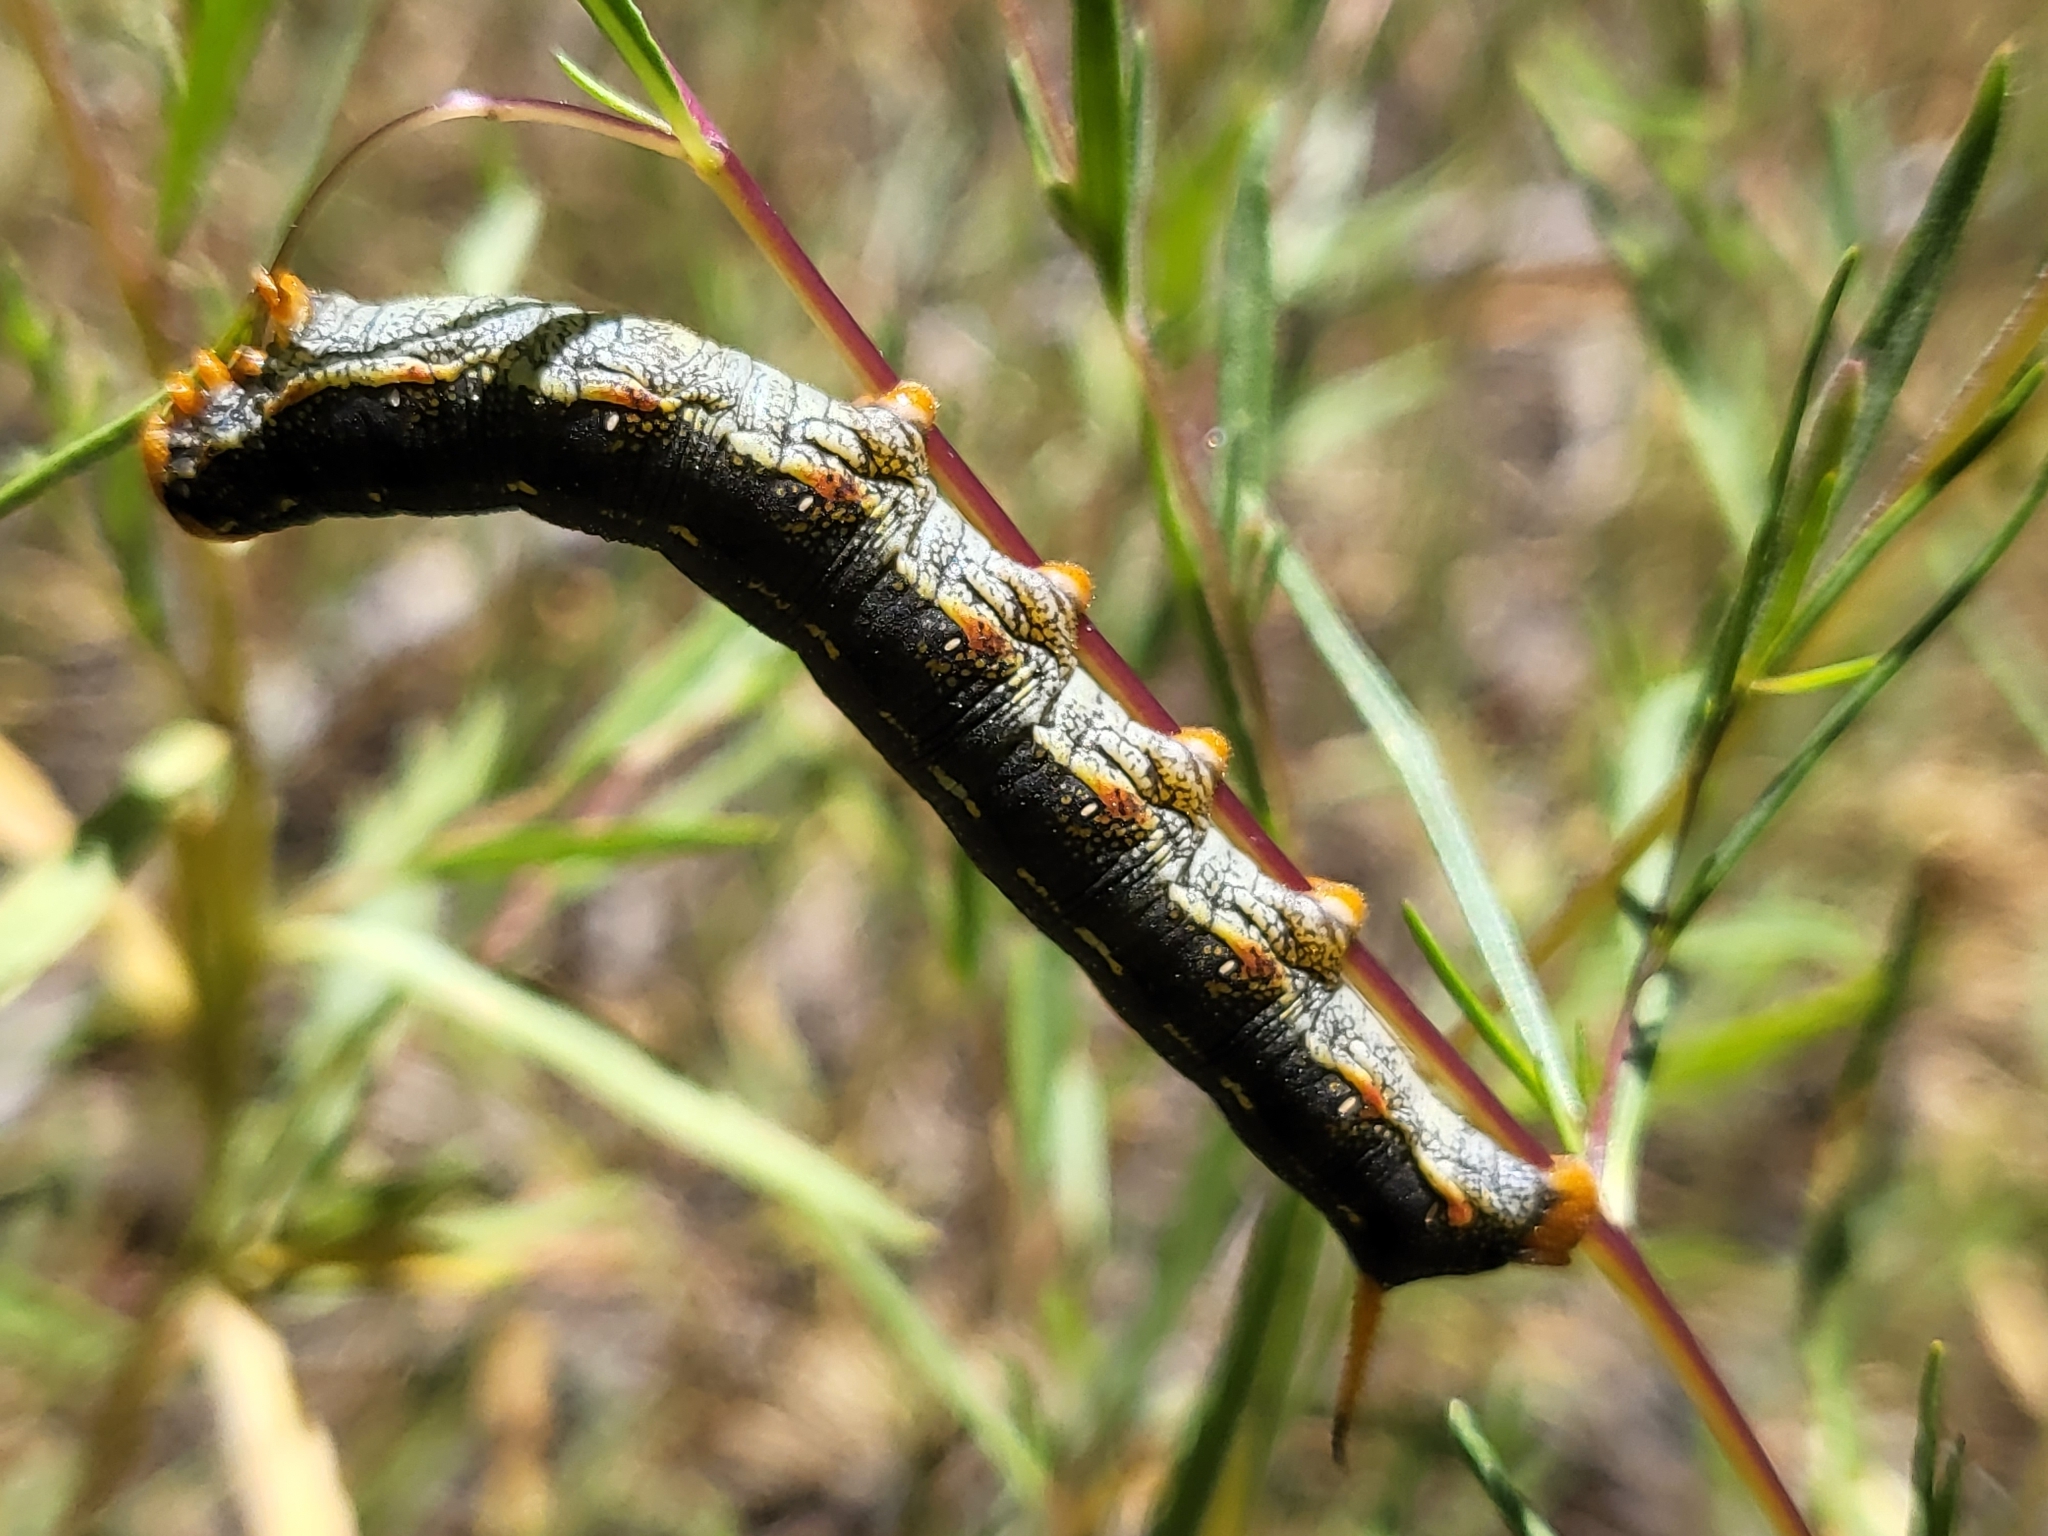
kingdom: Animalia
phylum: Arthropoda
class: Insecta
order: Lepidoptera
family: Sphingidae
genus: Hyles
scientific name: Hyles lineata
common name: White-lined sphinx
